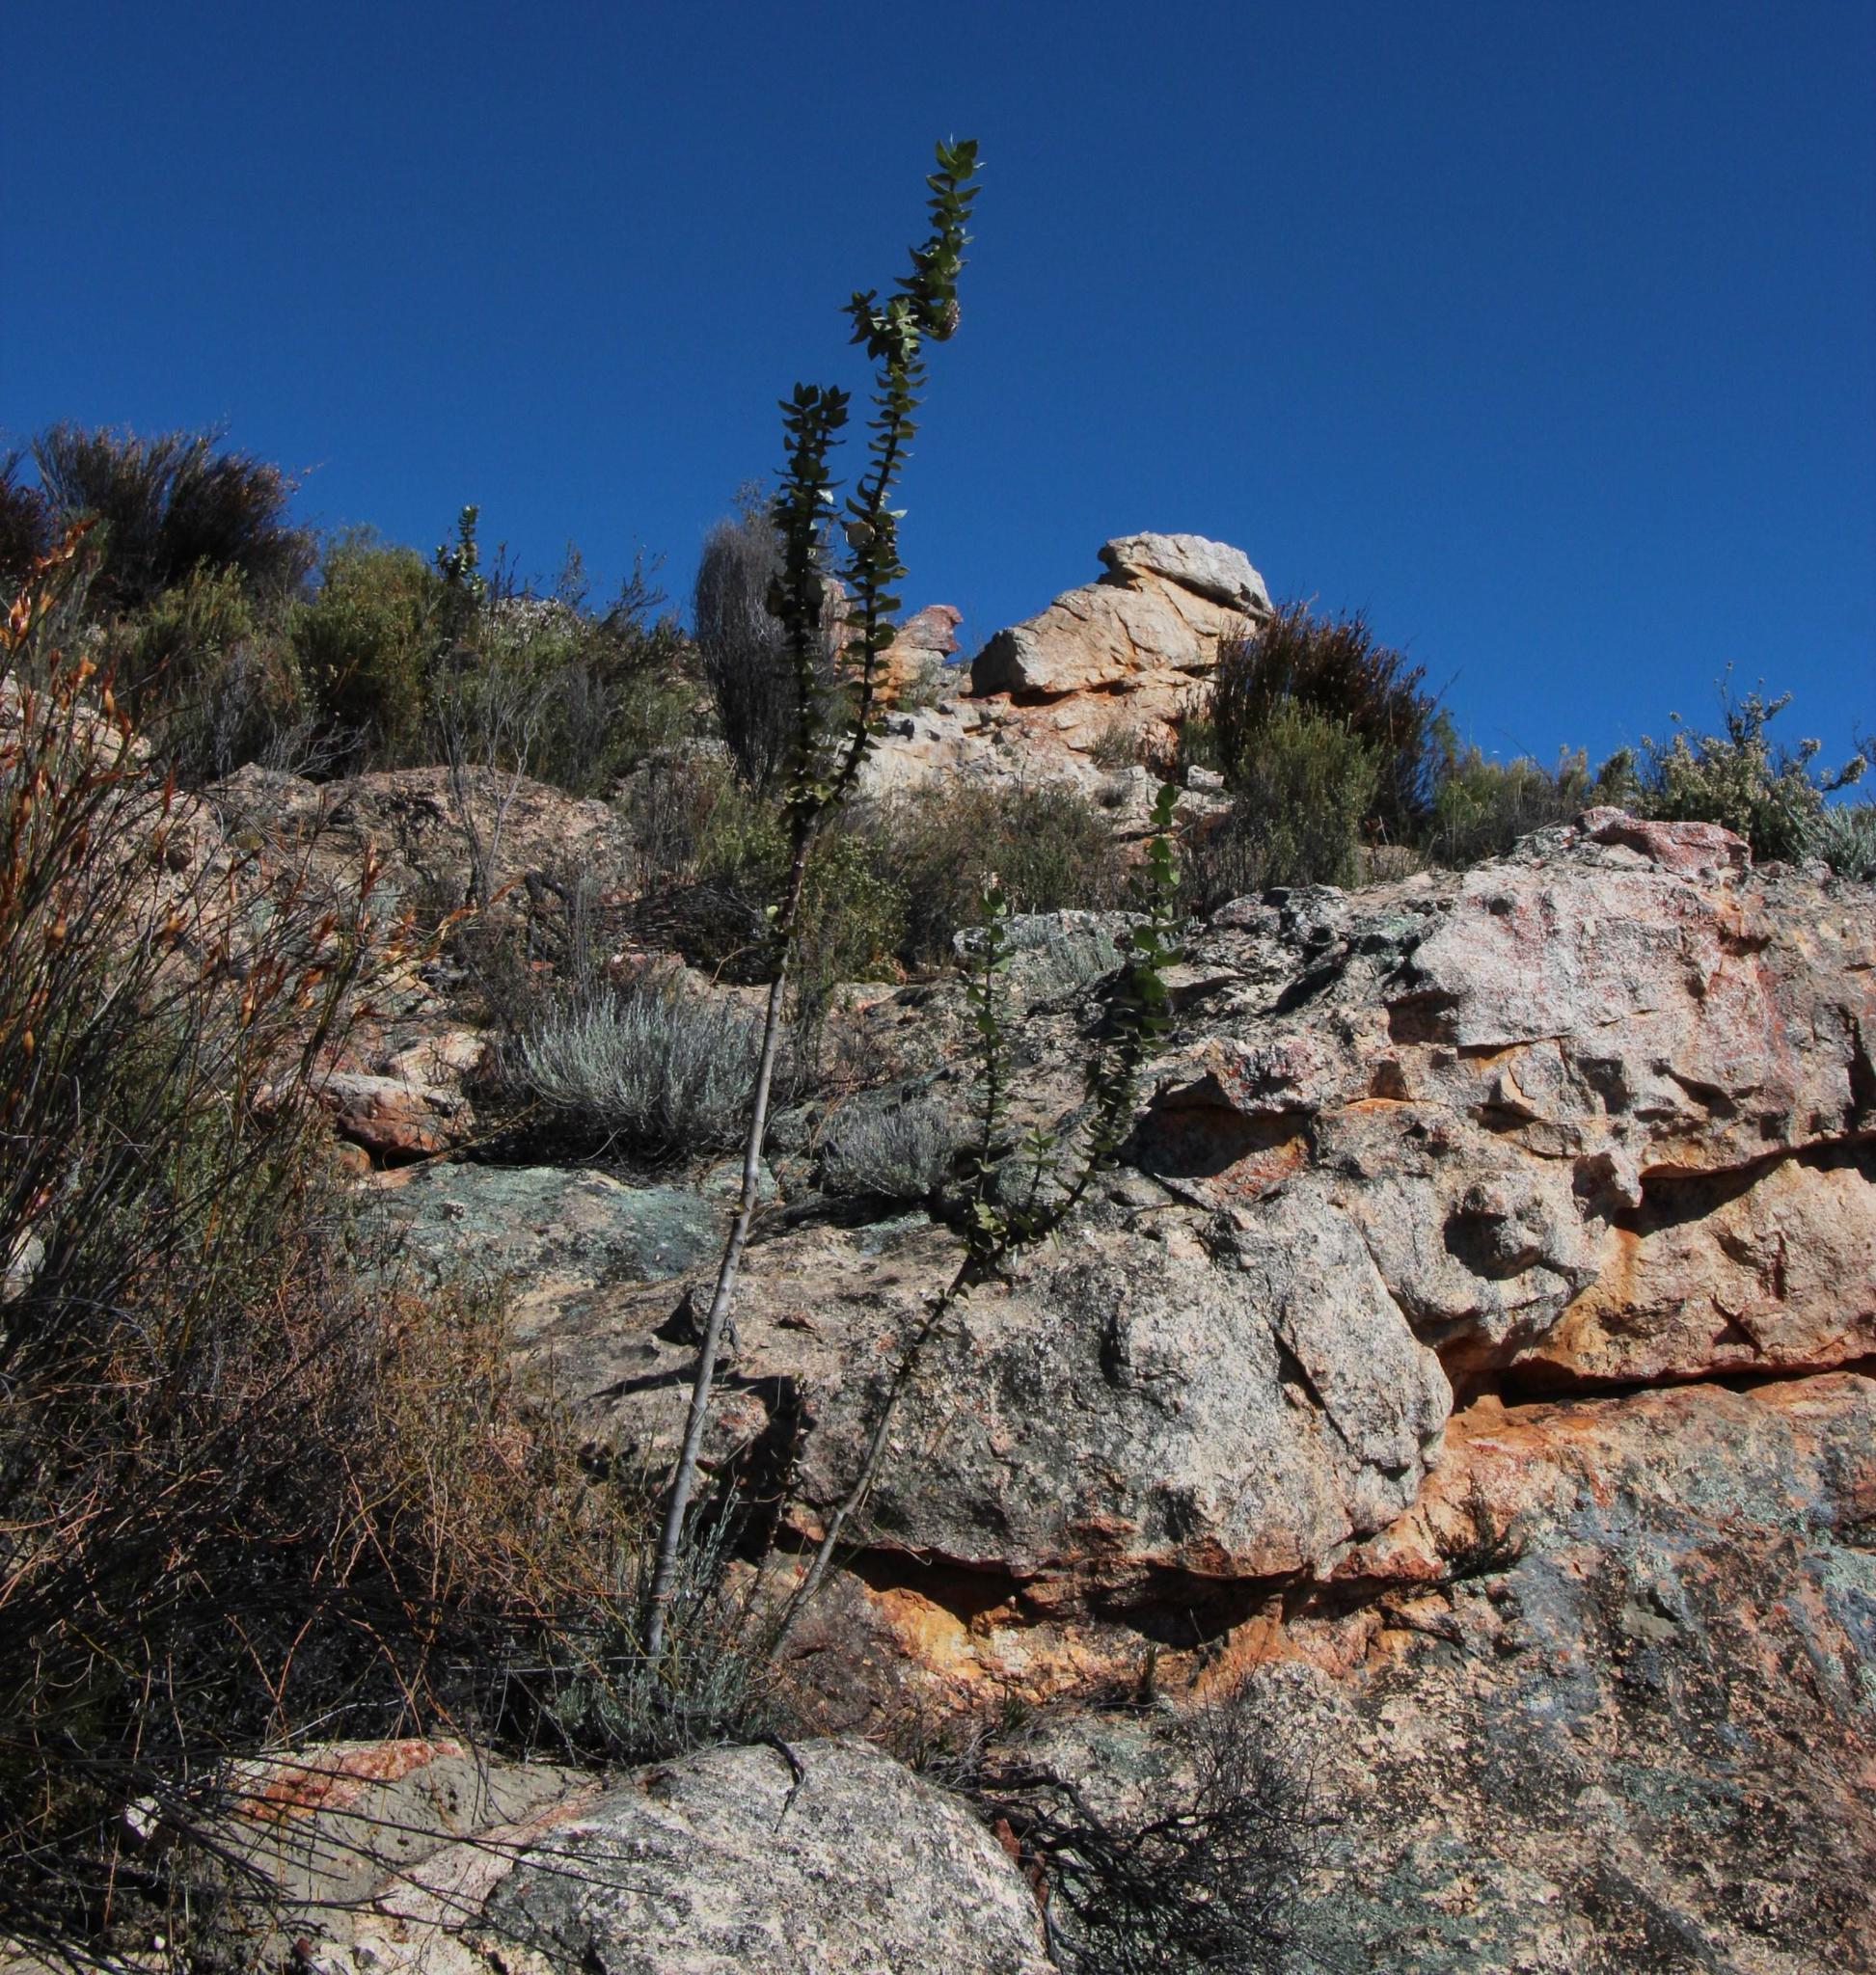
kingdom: Plantae
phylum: Tracheophyta
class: Magnoliopsida
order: Gentianales
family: Apocynaceae
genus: Gomphocarpus
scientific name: Gomphocarpus cancellatus
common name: Wild cotton
